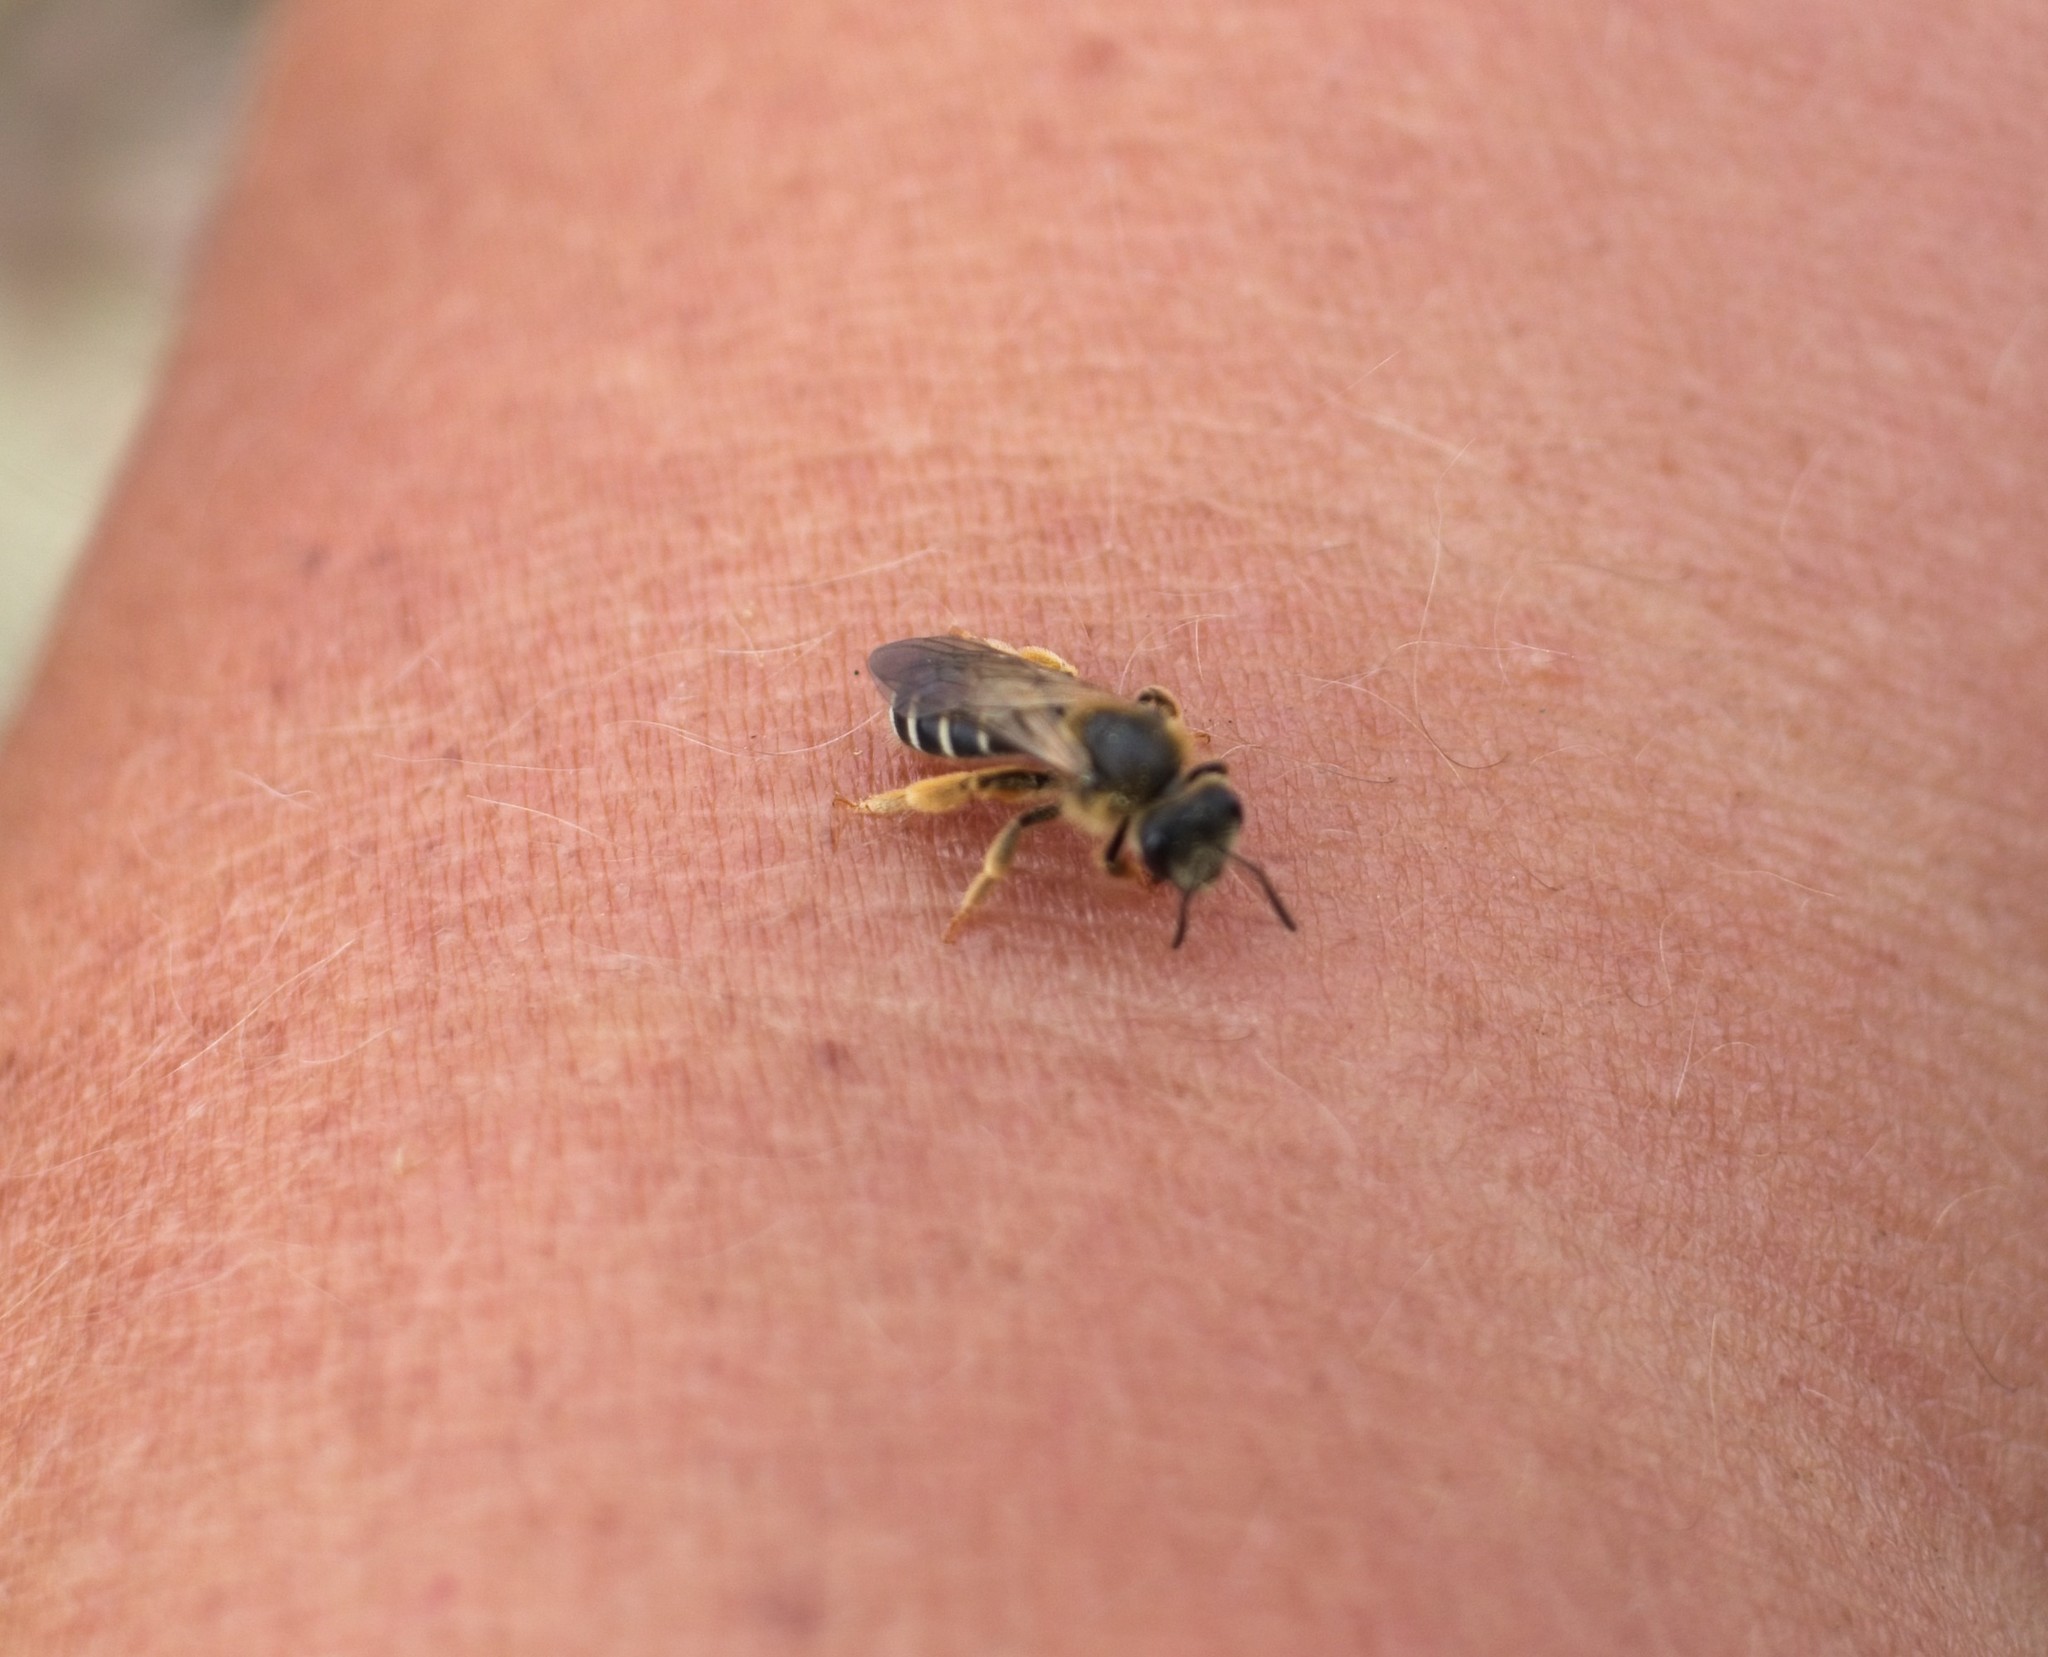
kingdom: Animalia
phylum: Arthropoda
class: Insecta
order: Hymenoptera
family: Halictidae
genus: Halictus
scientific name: Halictus rubicundus
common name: Orange-legged furrow bee
